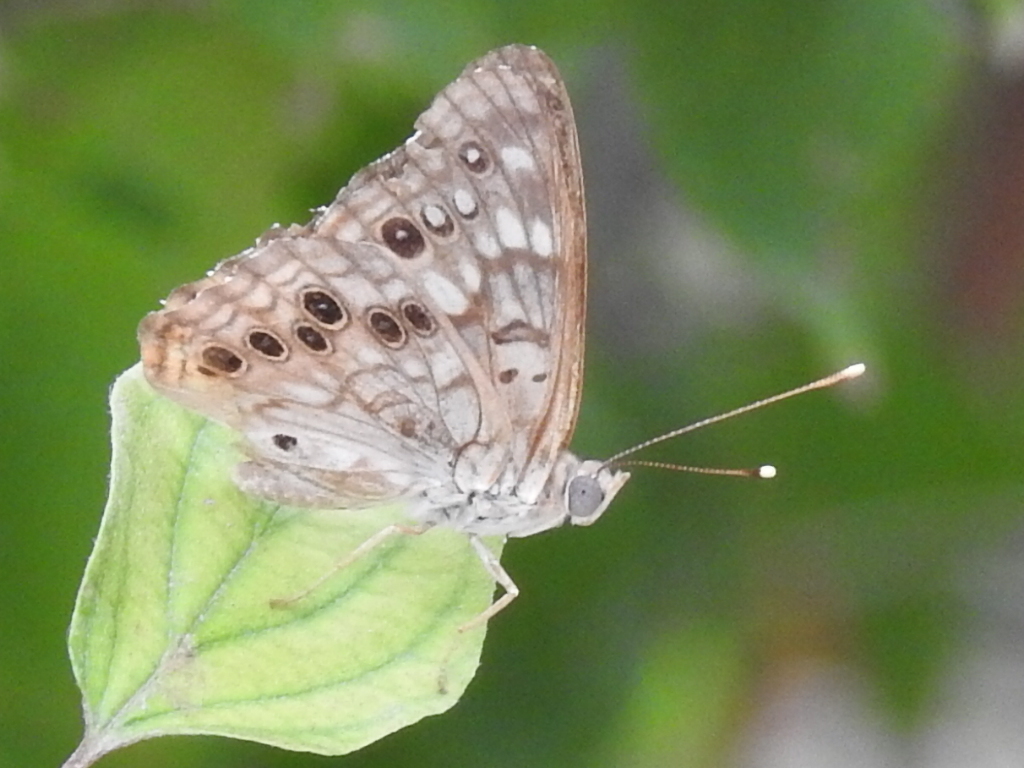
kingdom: Animalia
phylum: Arthropoda
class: Insecta
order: Lepidoptera
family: Nymphalidae
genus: Asterocampa
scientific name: Asterocampa celtis
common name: Hackberry emperor
